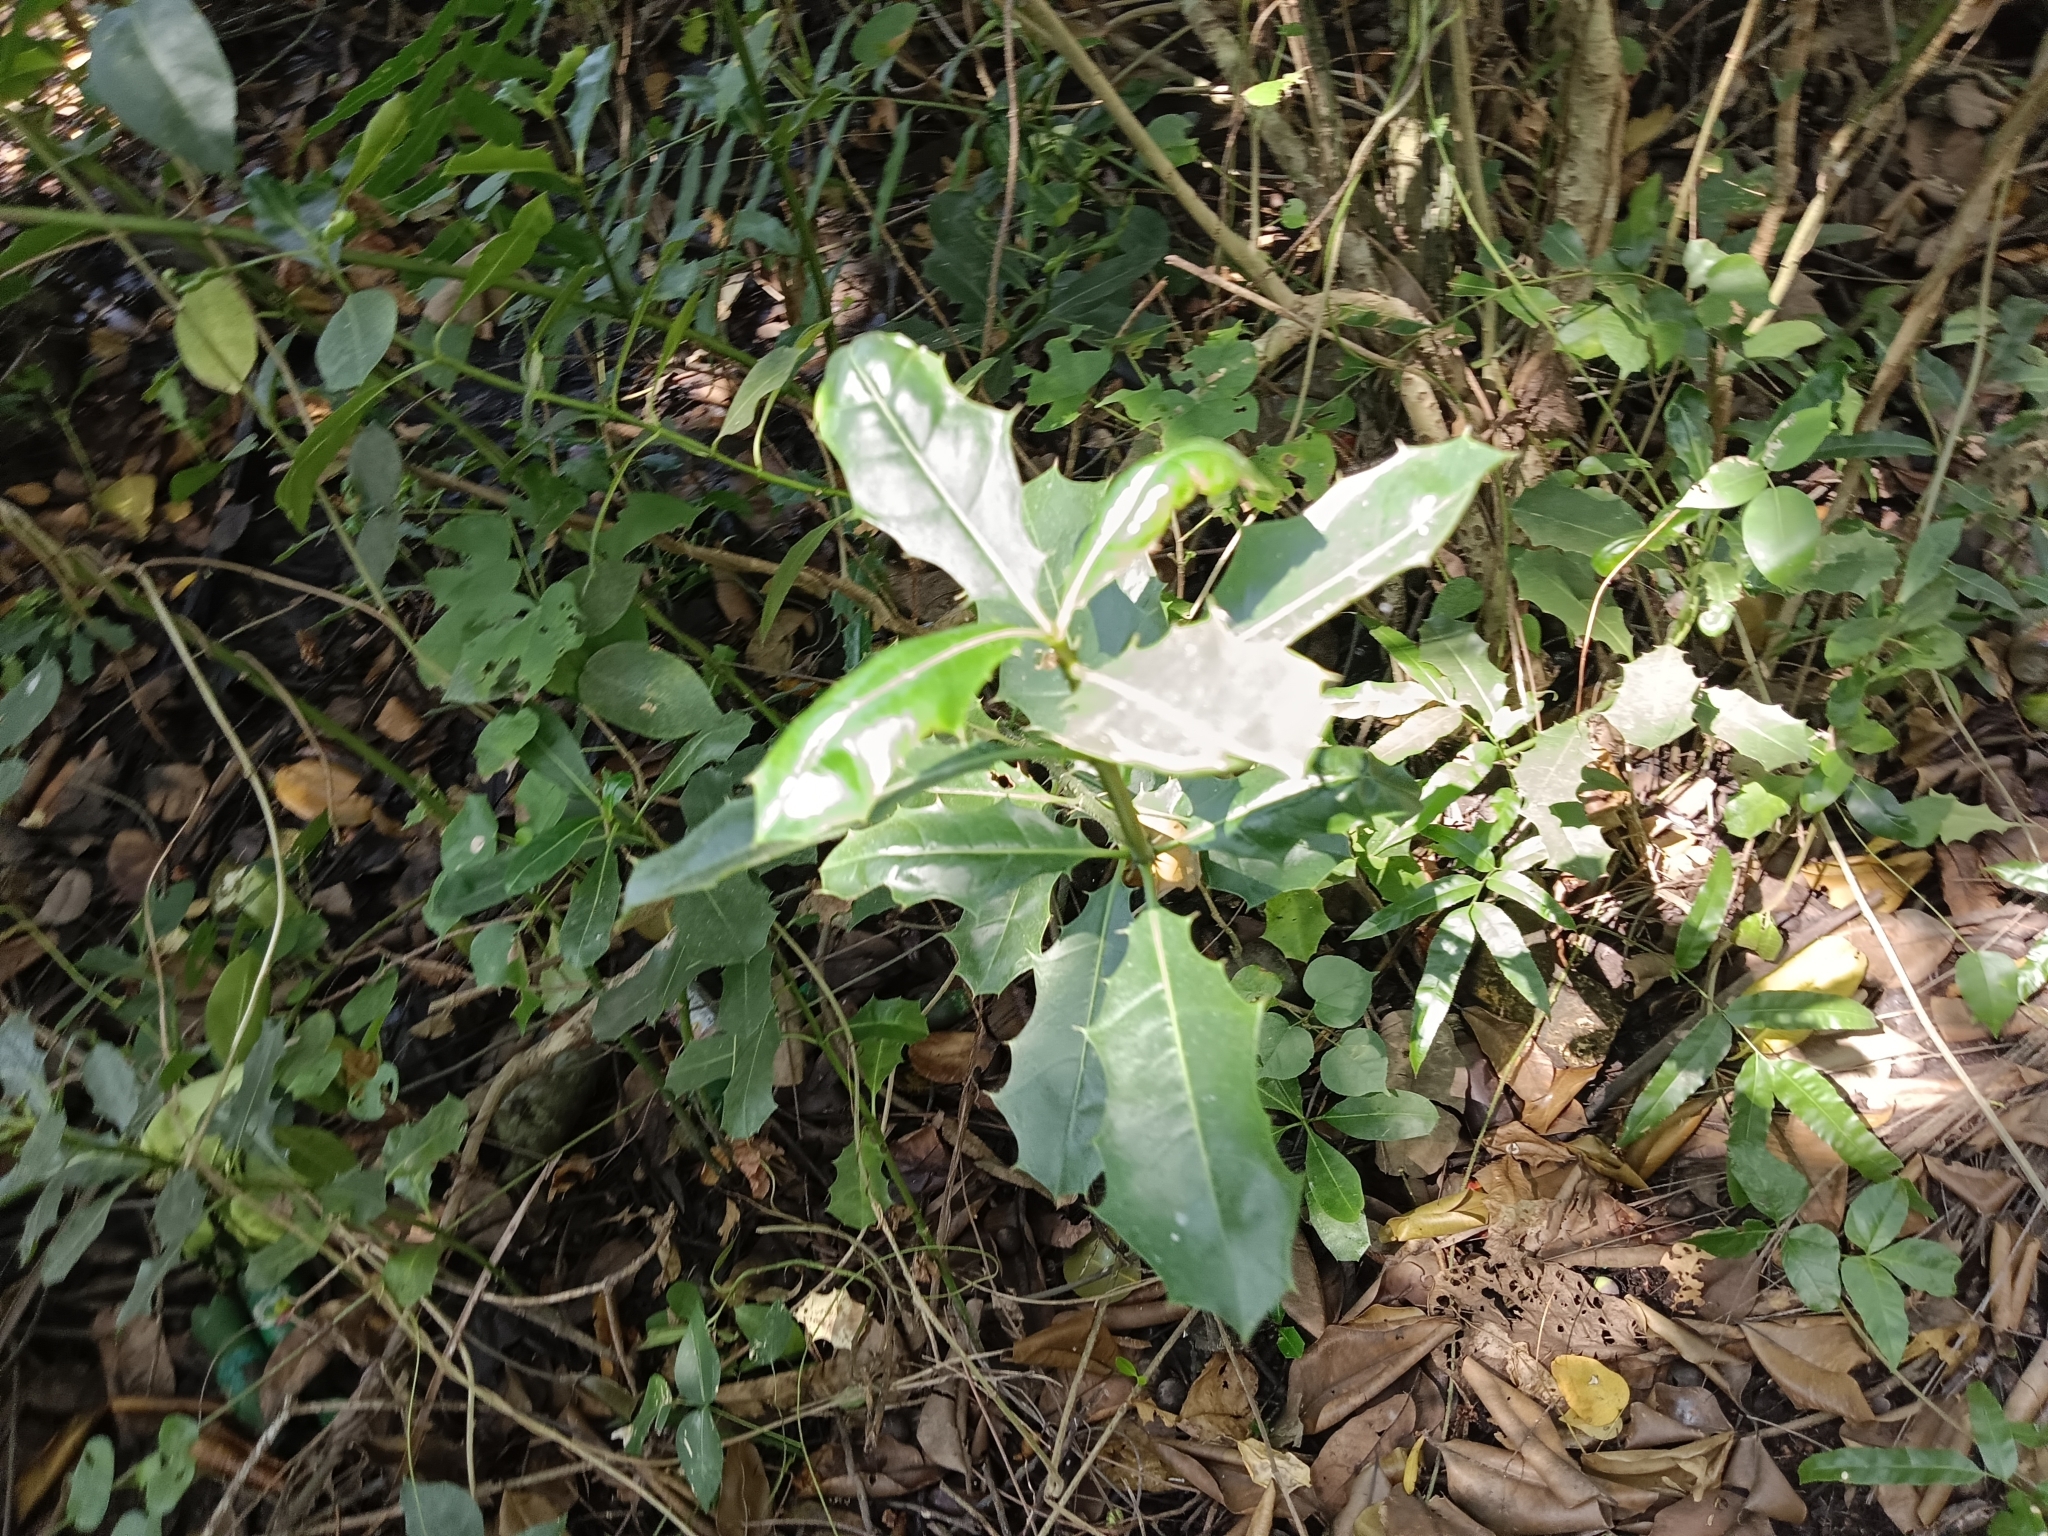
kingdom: Plantae
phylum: Tracheophyta
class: Magnoliopsida
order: Lamiales
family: Acanthaceae
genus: Acanthus
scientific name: Acanthus ilicifolius
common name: Holy mangrove
